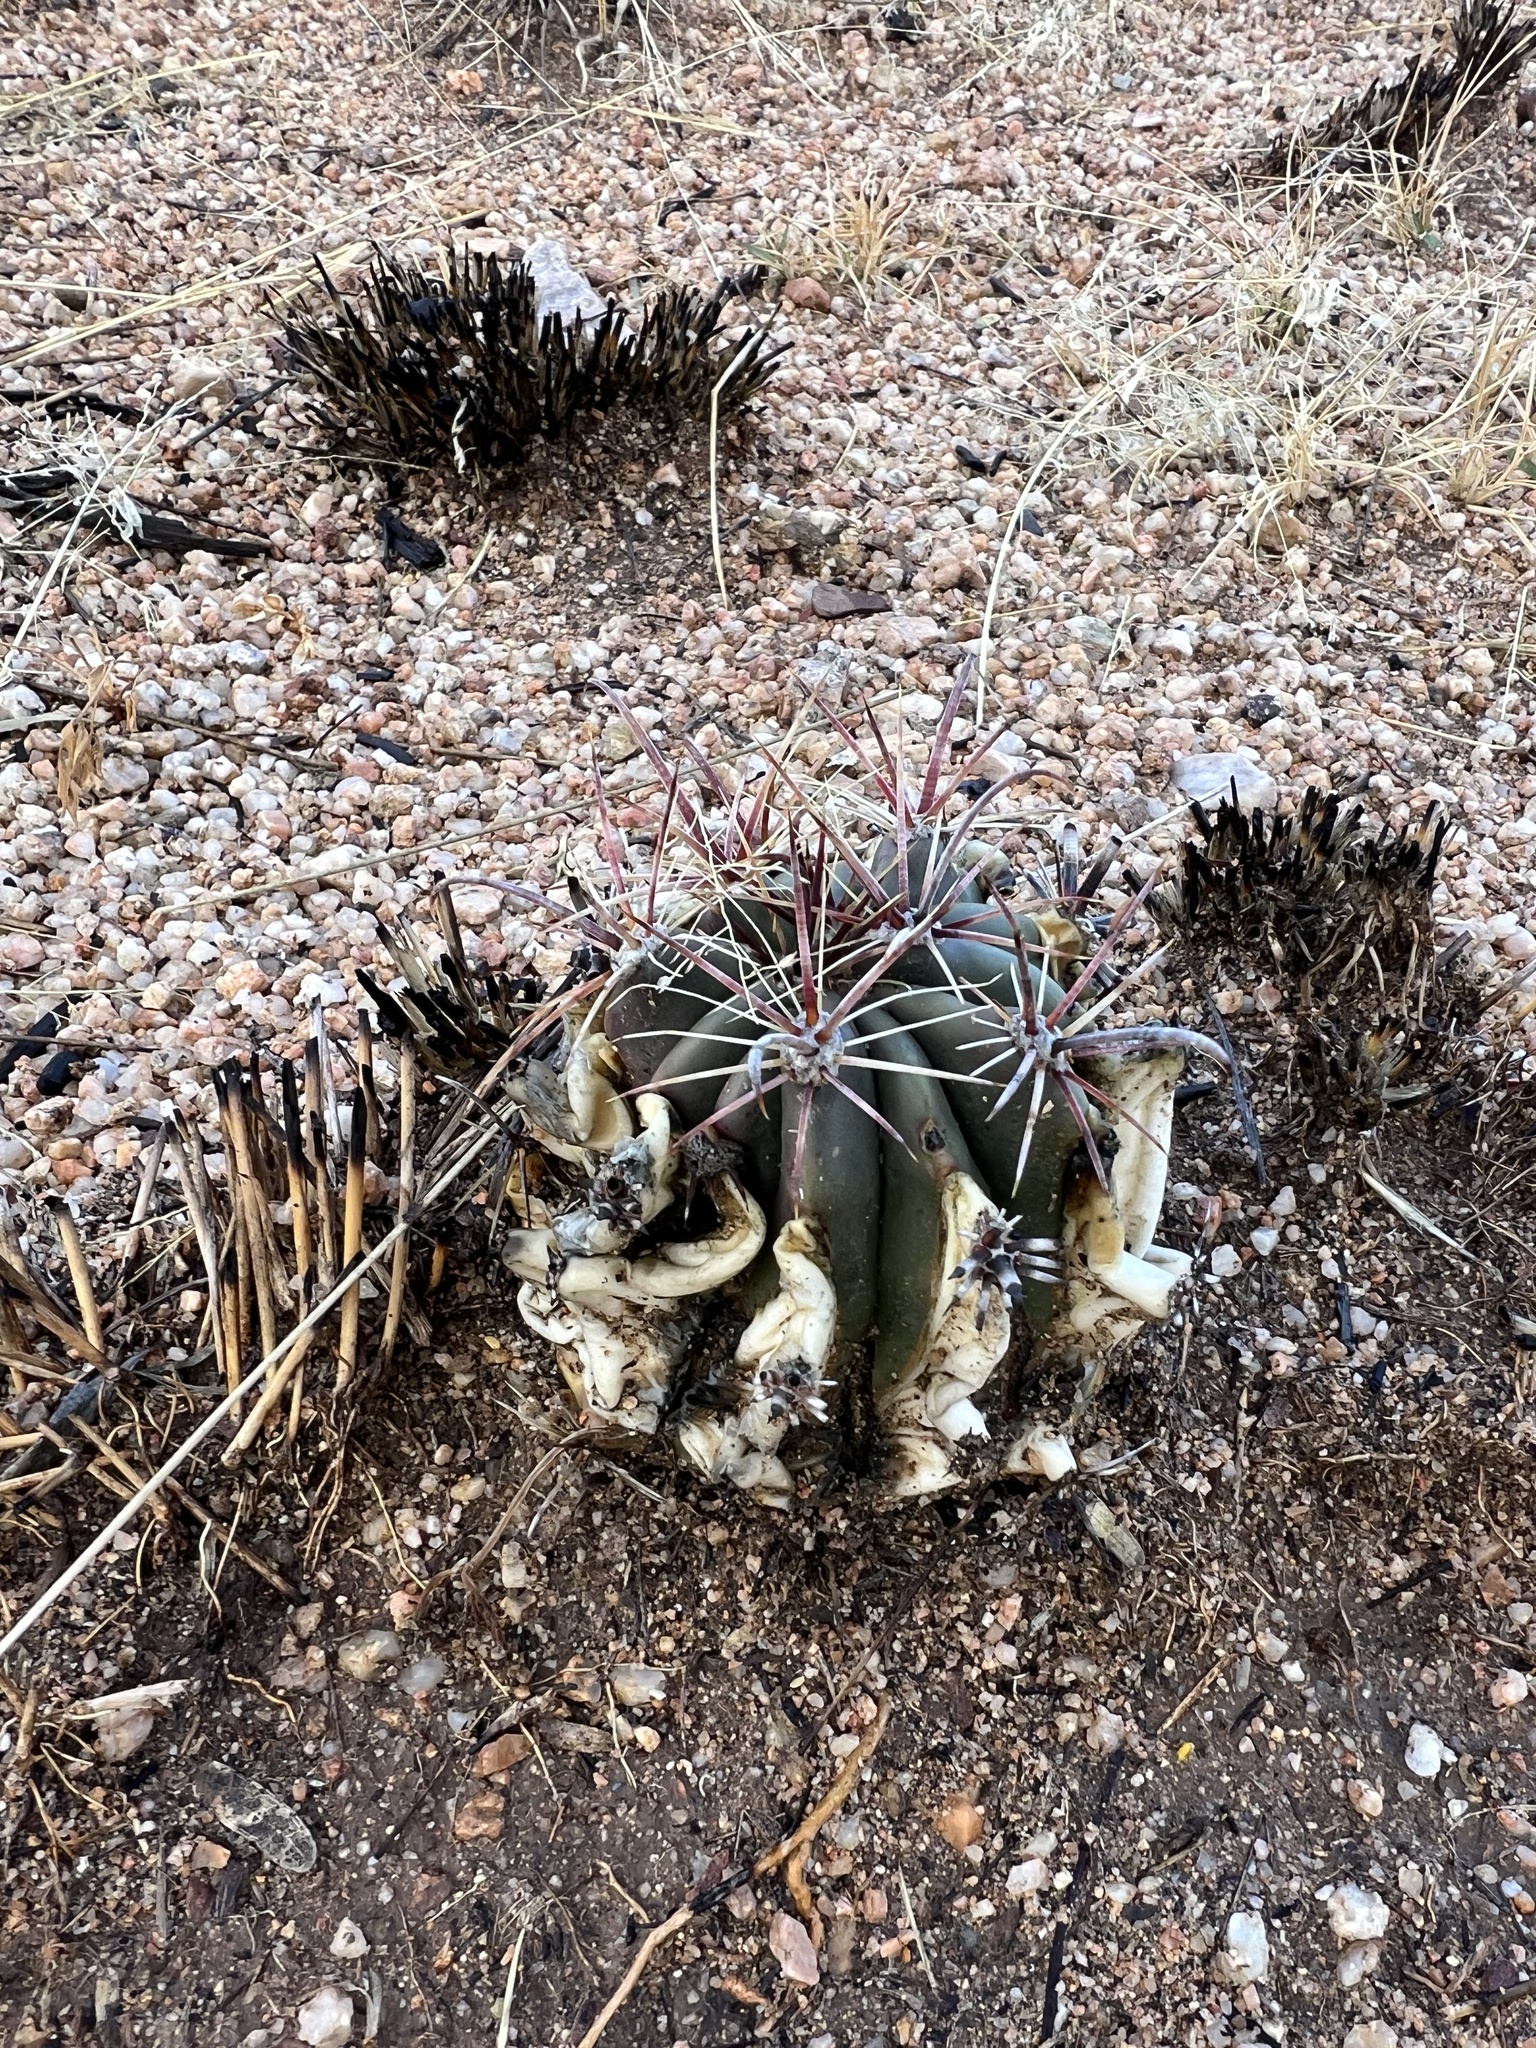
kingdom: Plantae
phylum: Tracheophyta
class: Magnoliopsida
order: Caryophyllales
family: Cactaceae
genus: Ferocactus
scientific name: Ferocactus wislizeni
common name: Candy barrel cactus
